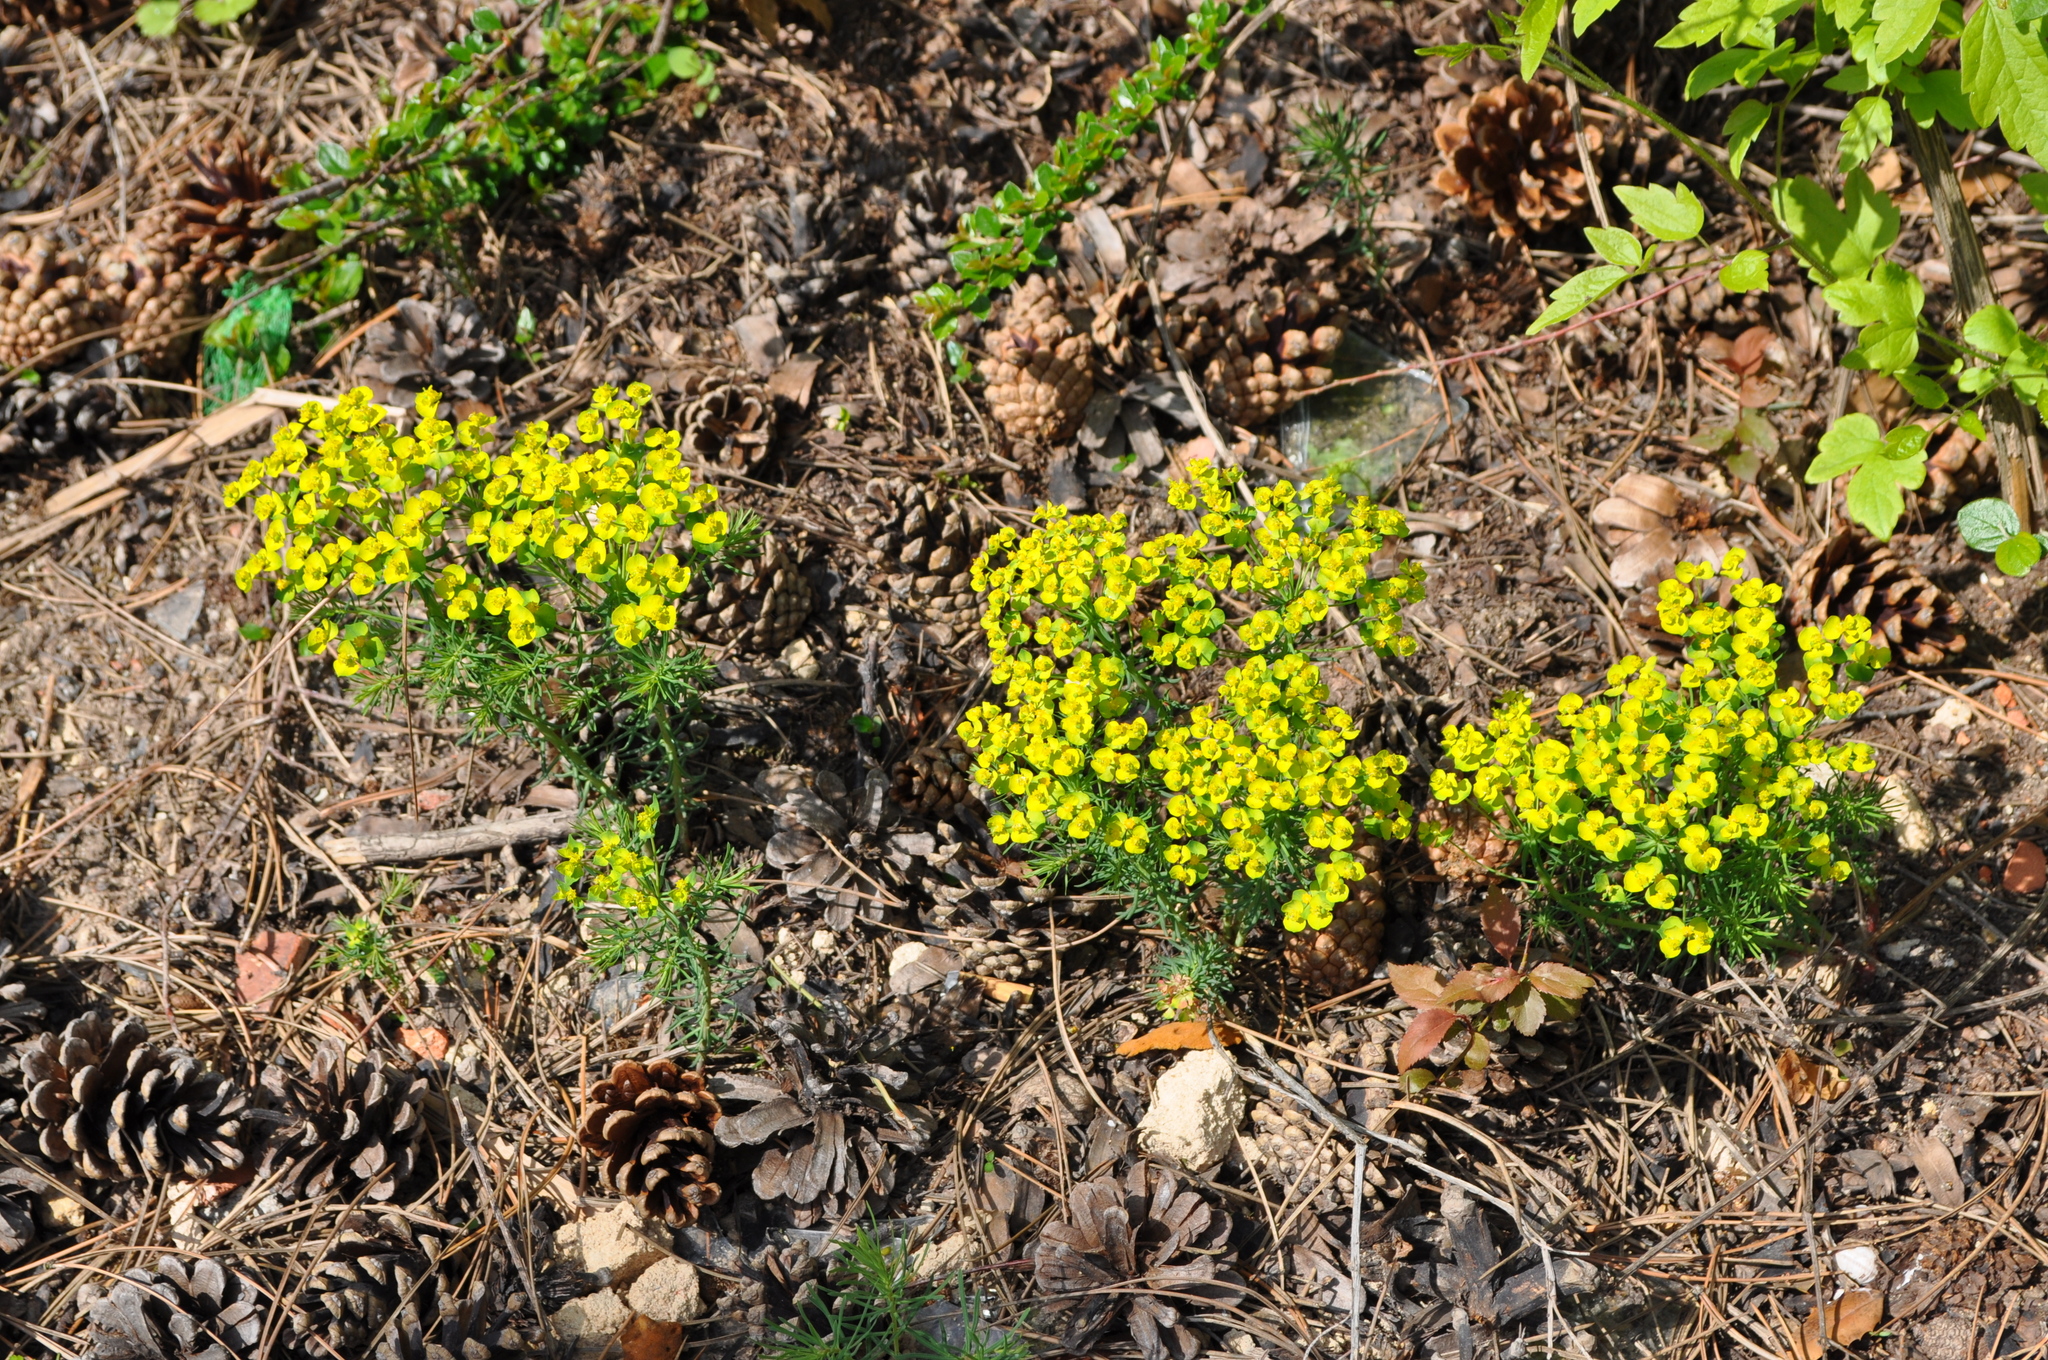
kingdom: Plantae
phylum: Tracheophyta
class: Magnoliopsida
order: Malpighiales
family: Euphorbiaceae
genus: Euphorbia
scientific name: Euphorbia cyparissias
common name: Cypress spurge
